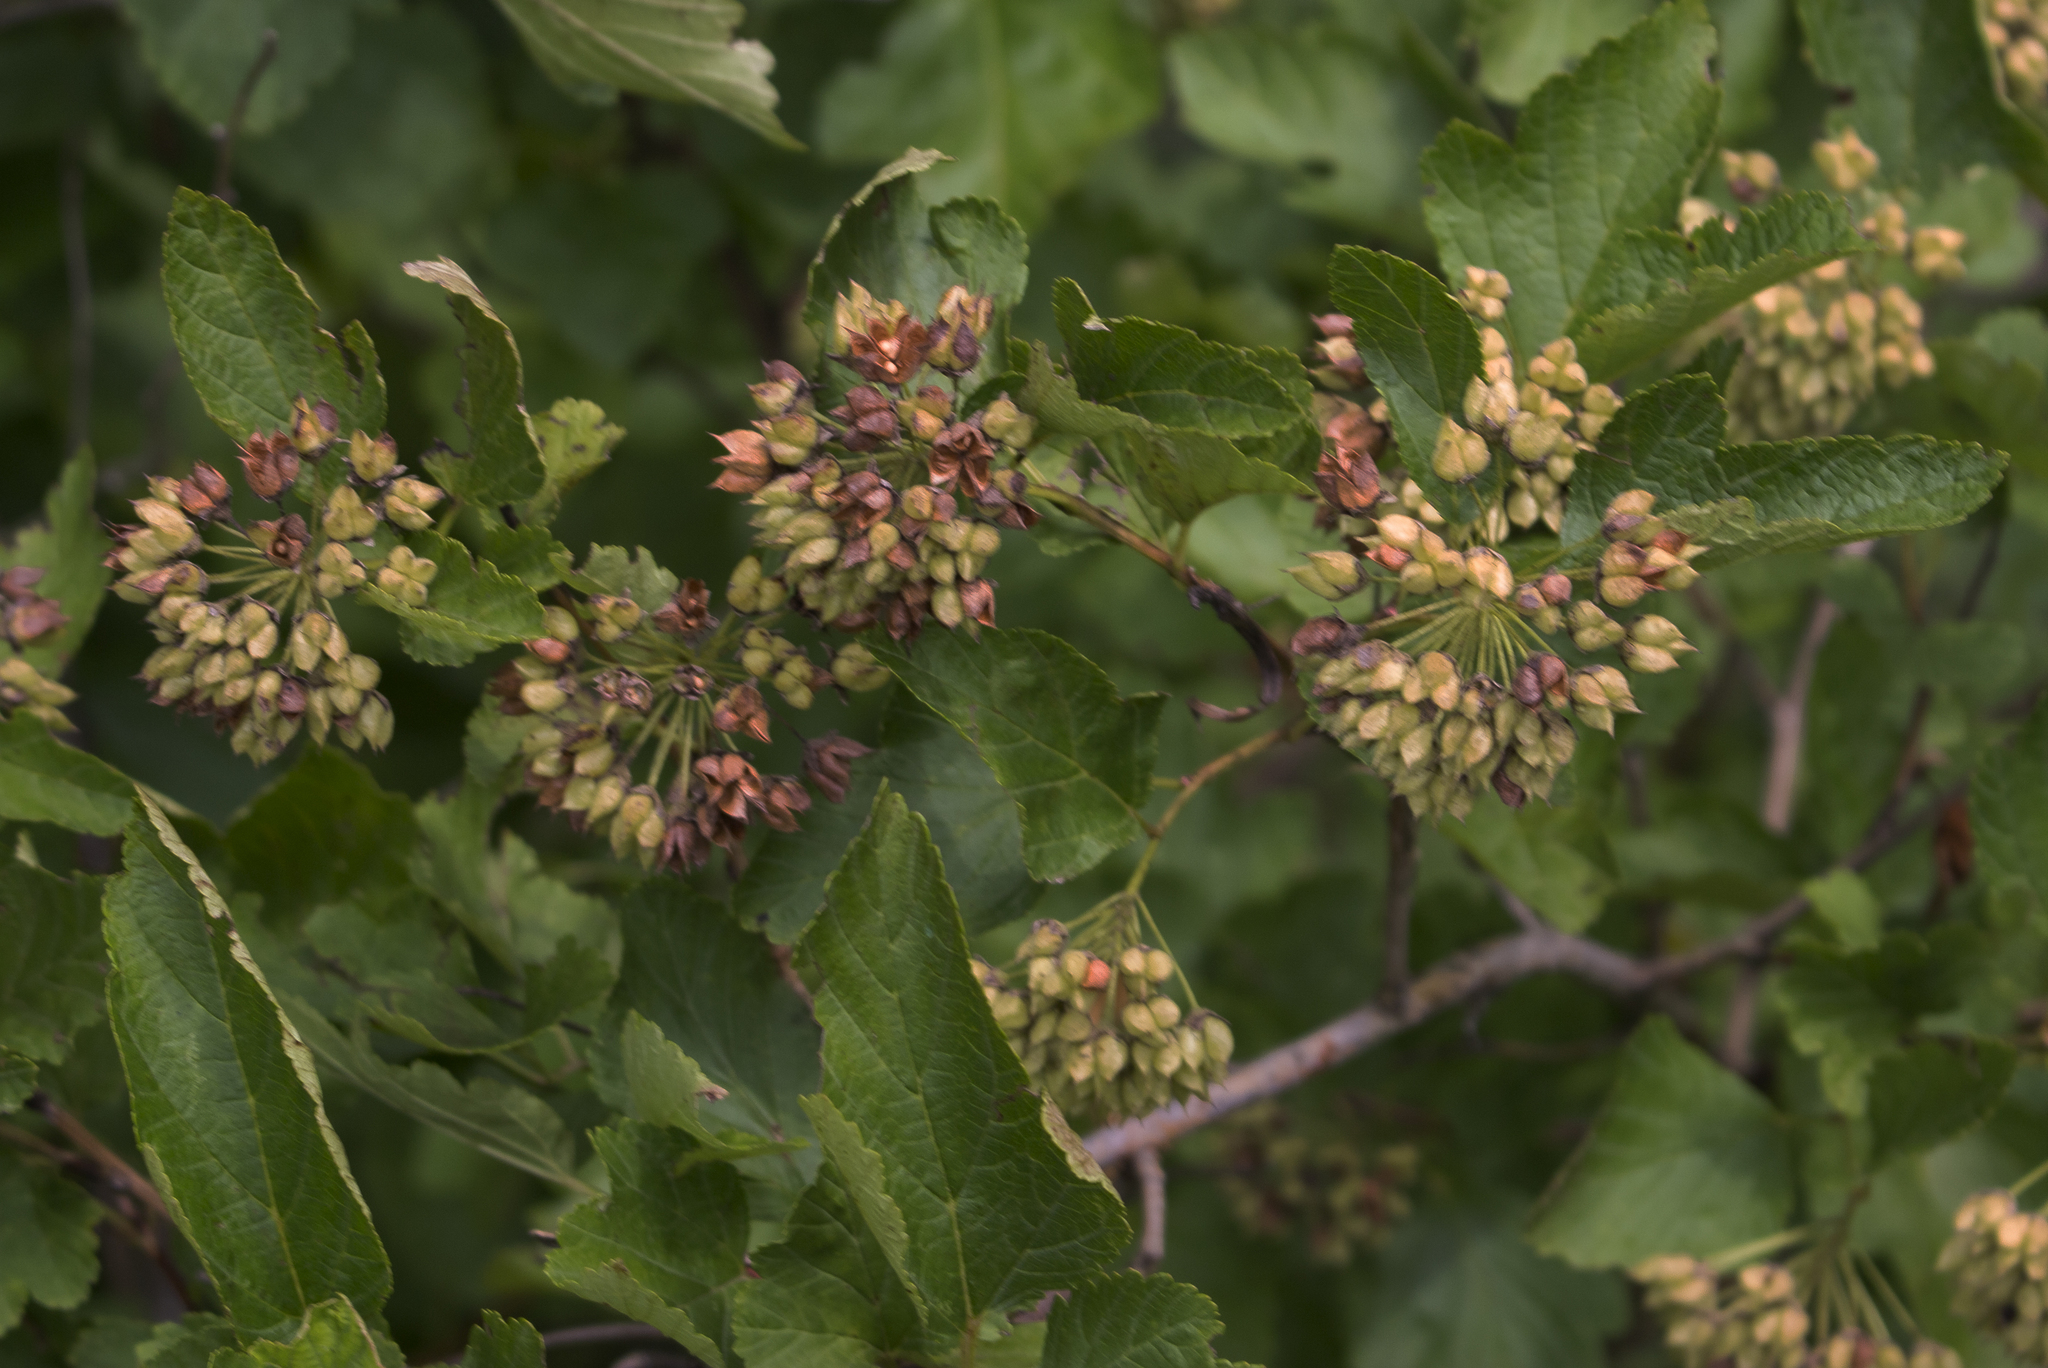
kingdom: Plantae
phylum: Tracheophyta
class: Magnoliopsida
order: Rosales
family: Rosaceae
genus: Physocarpus
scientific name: Physocarpus opulifolius
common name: Ninebark
